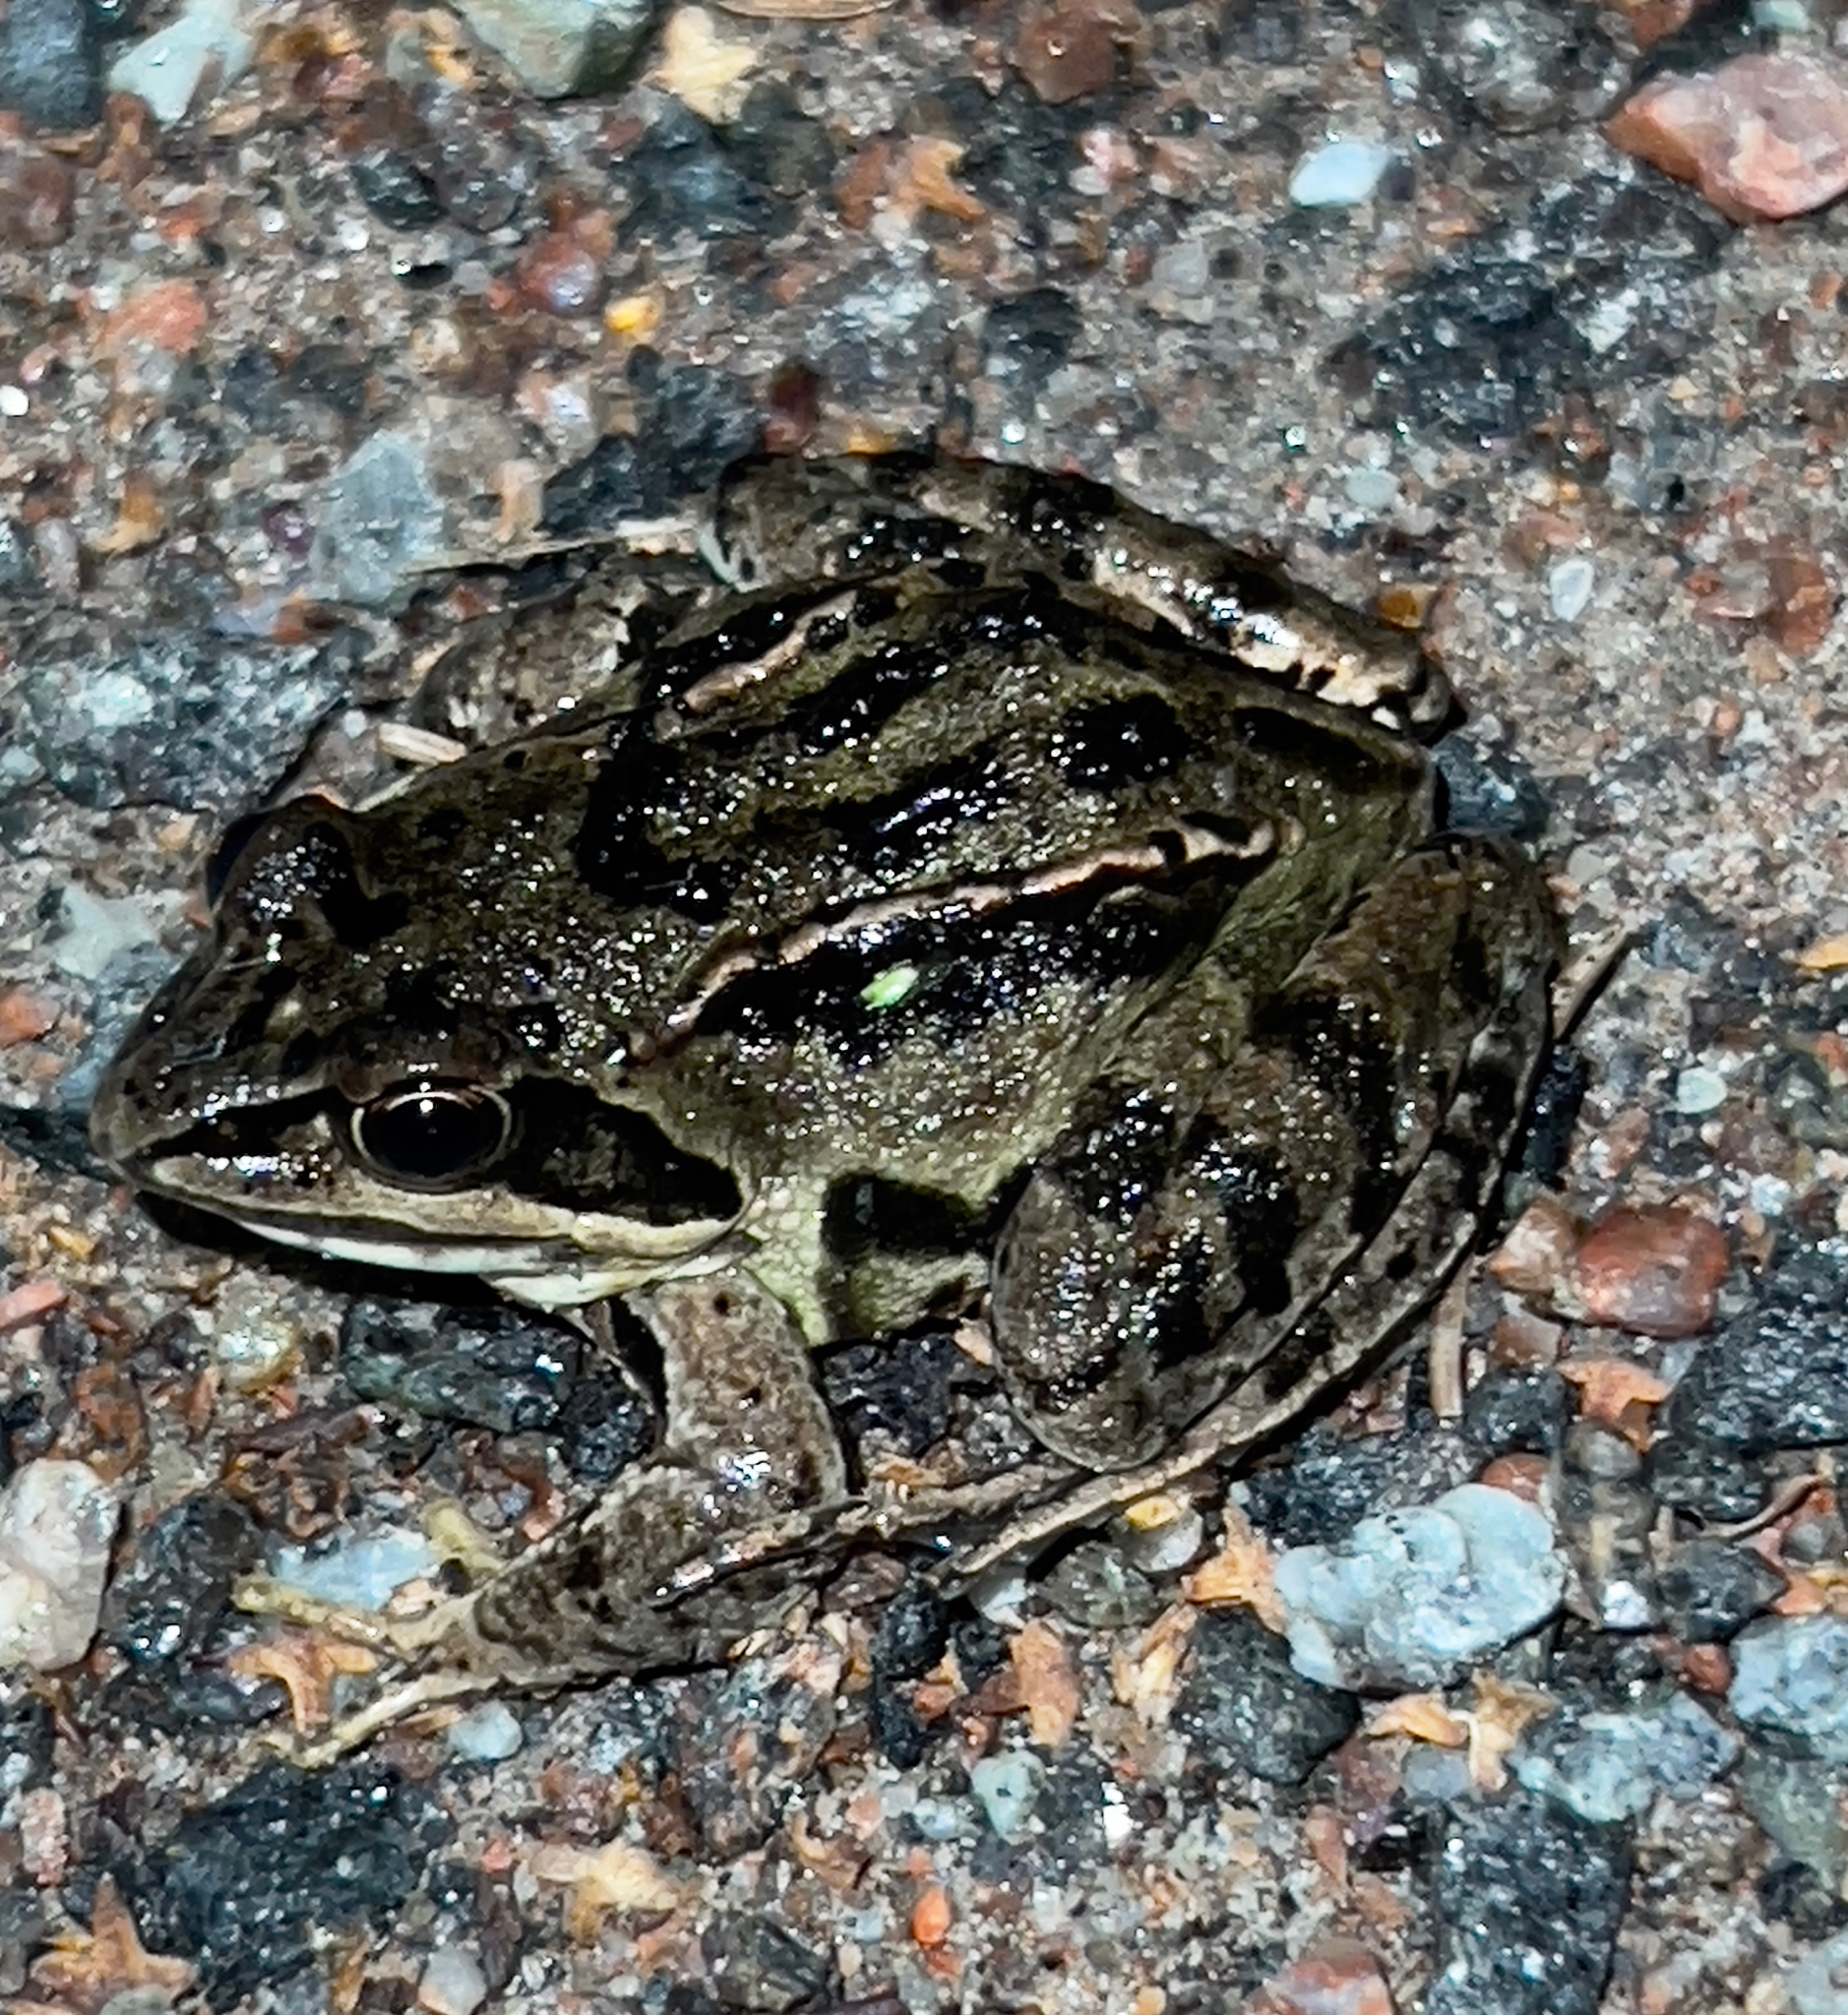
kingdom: Animalia
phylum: Chordata
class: Amphibia
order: Anura
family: Ranidae
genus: Rana
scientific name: Rana arvalis
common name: Moor frog
